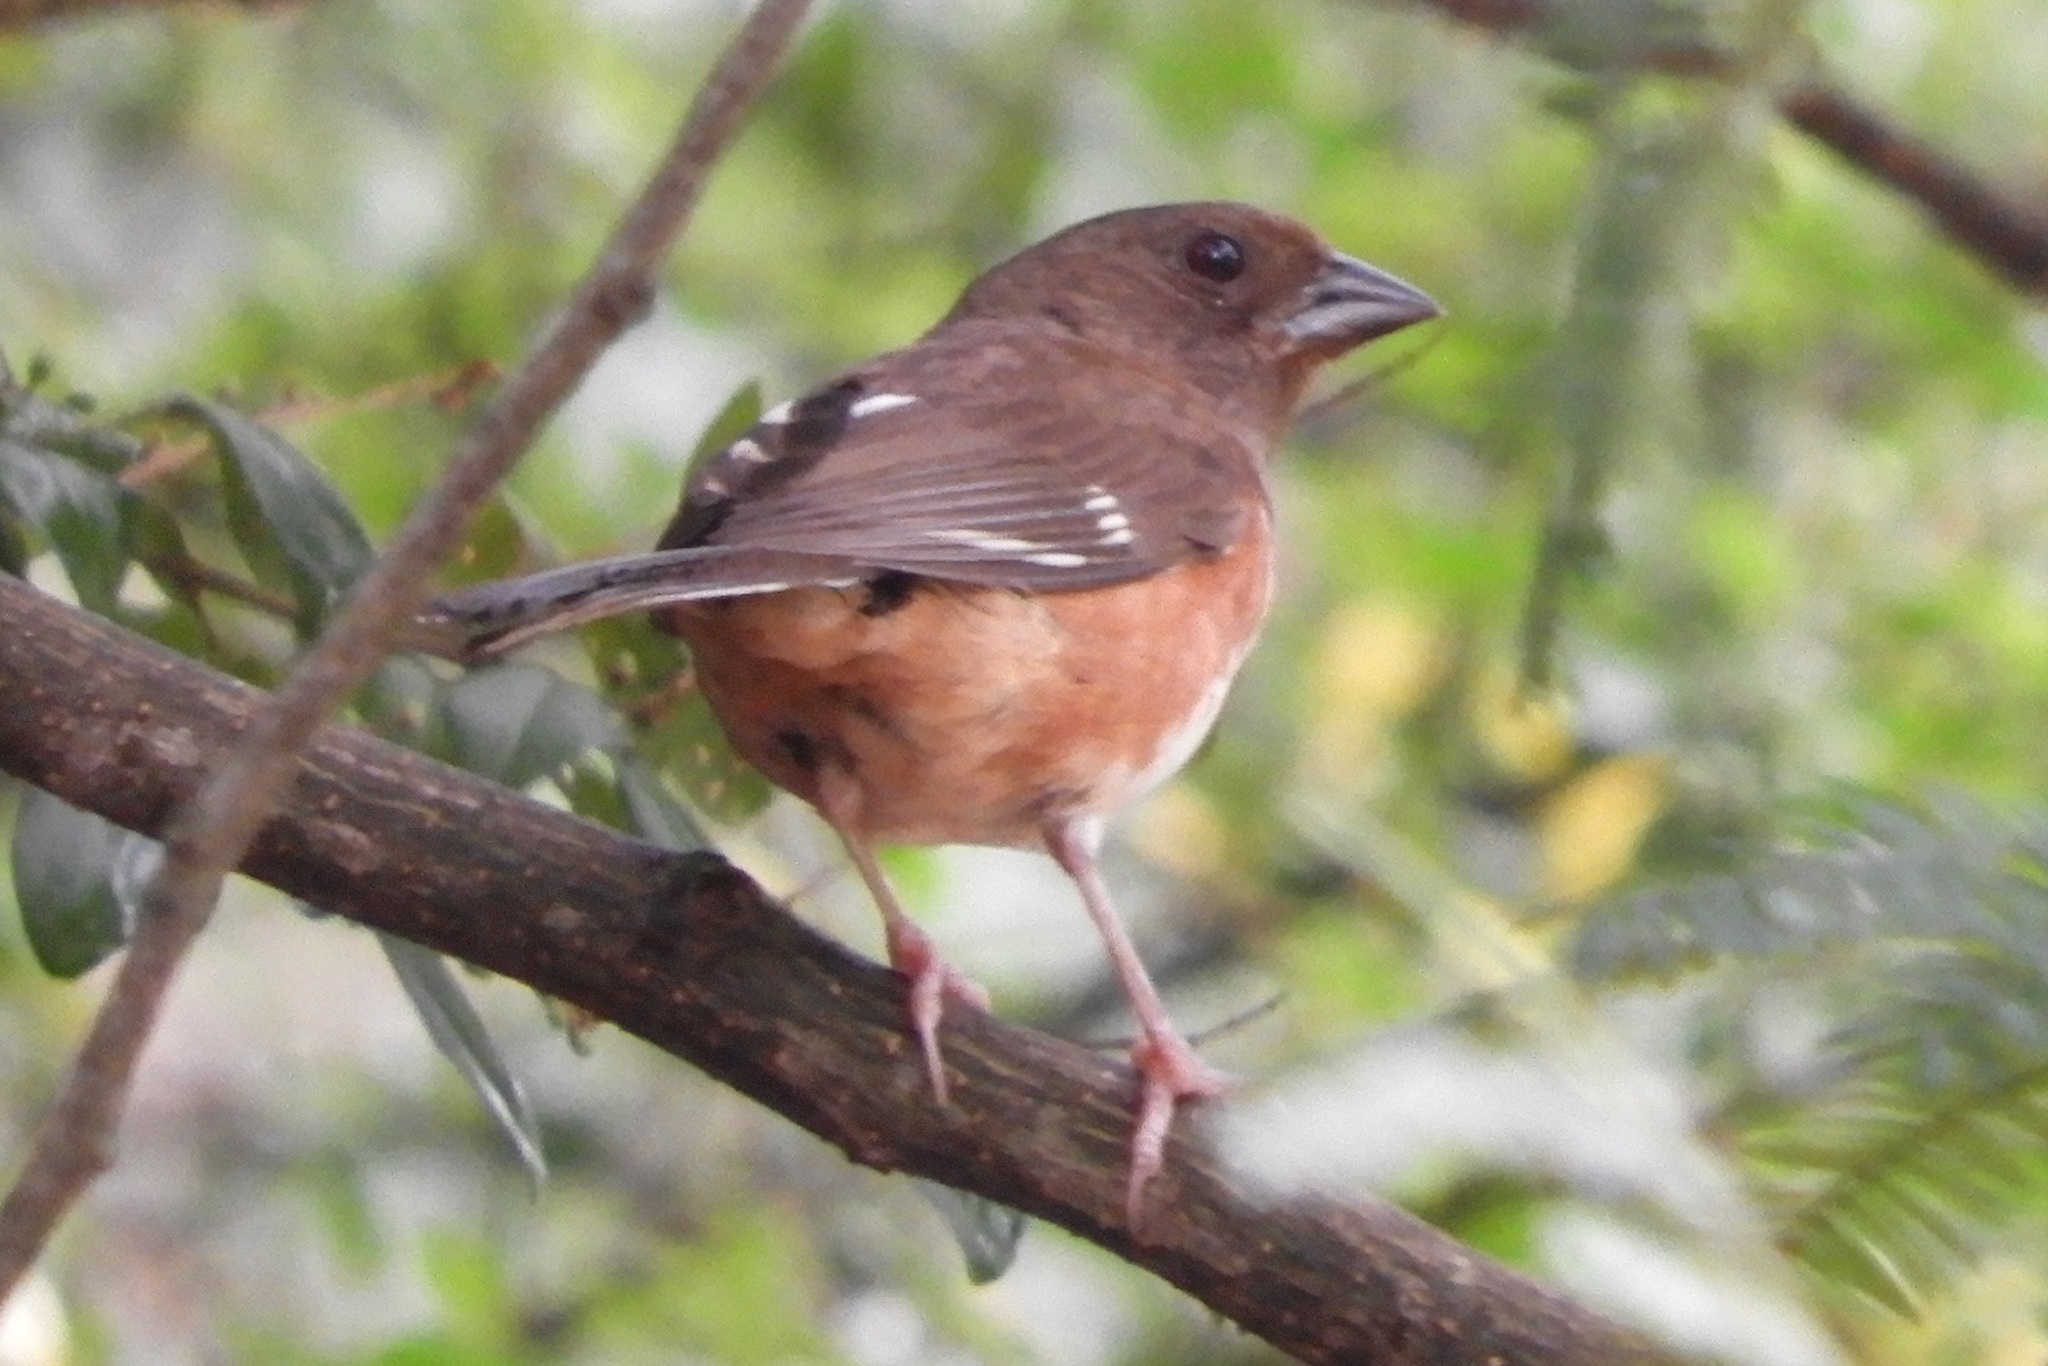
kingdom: Animalia
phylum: Chordata
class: Aves
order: Passeriformes
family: Passerellidae
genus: Pipilo
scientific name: Pipilo erythrophthalmus
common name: Eastern towhee
